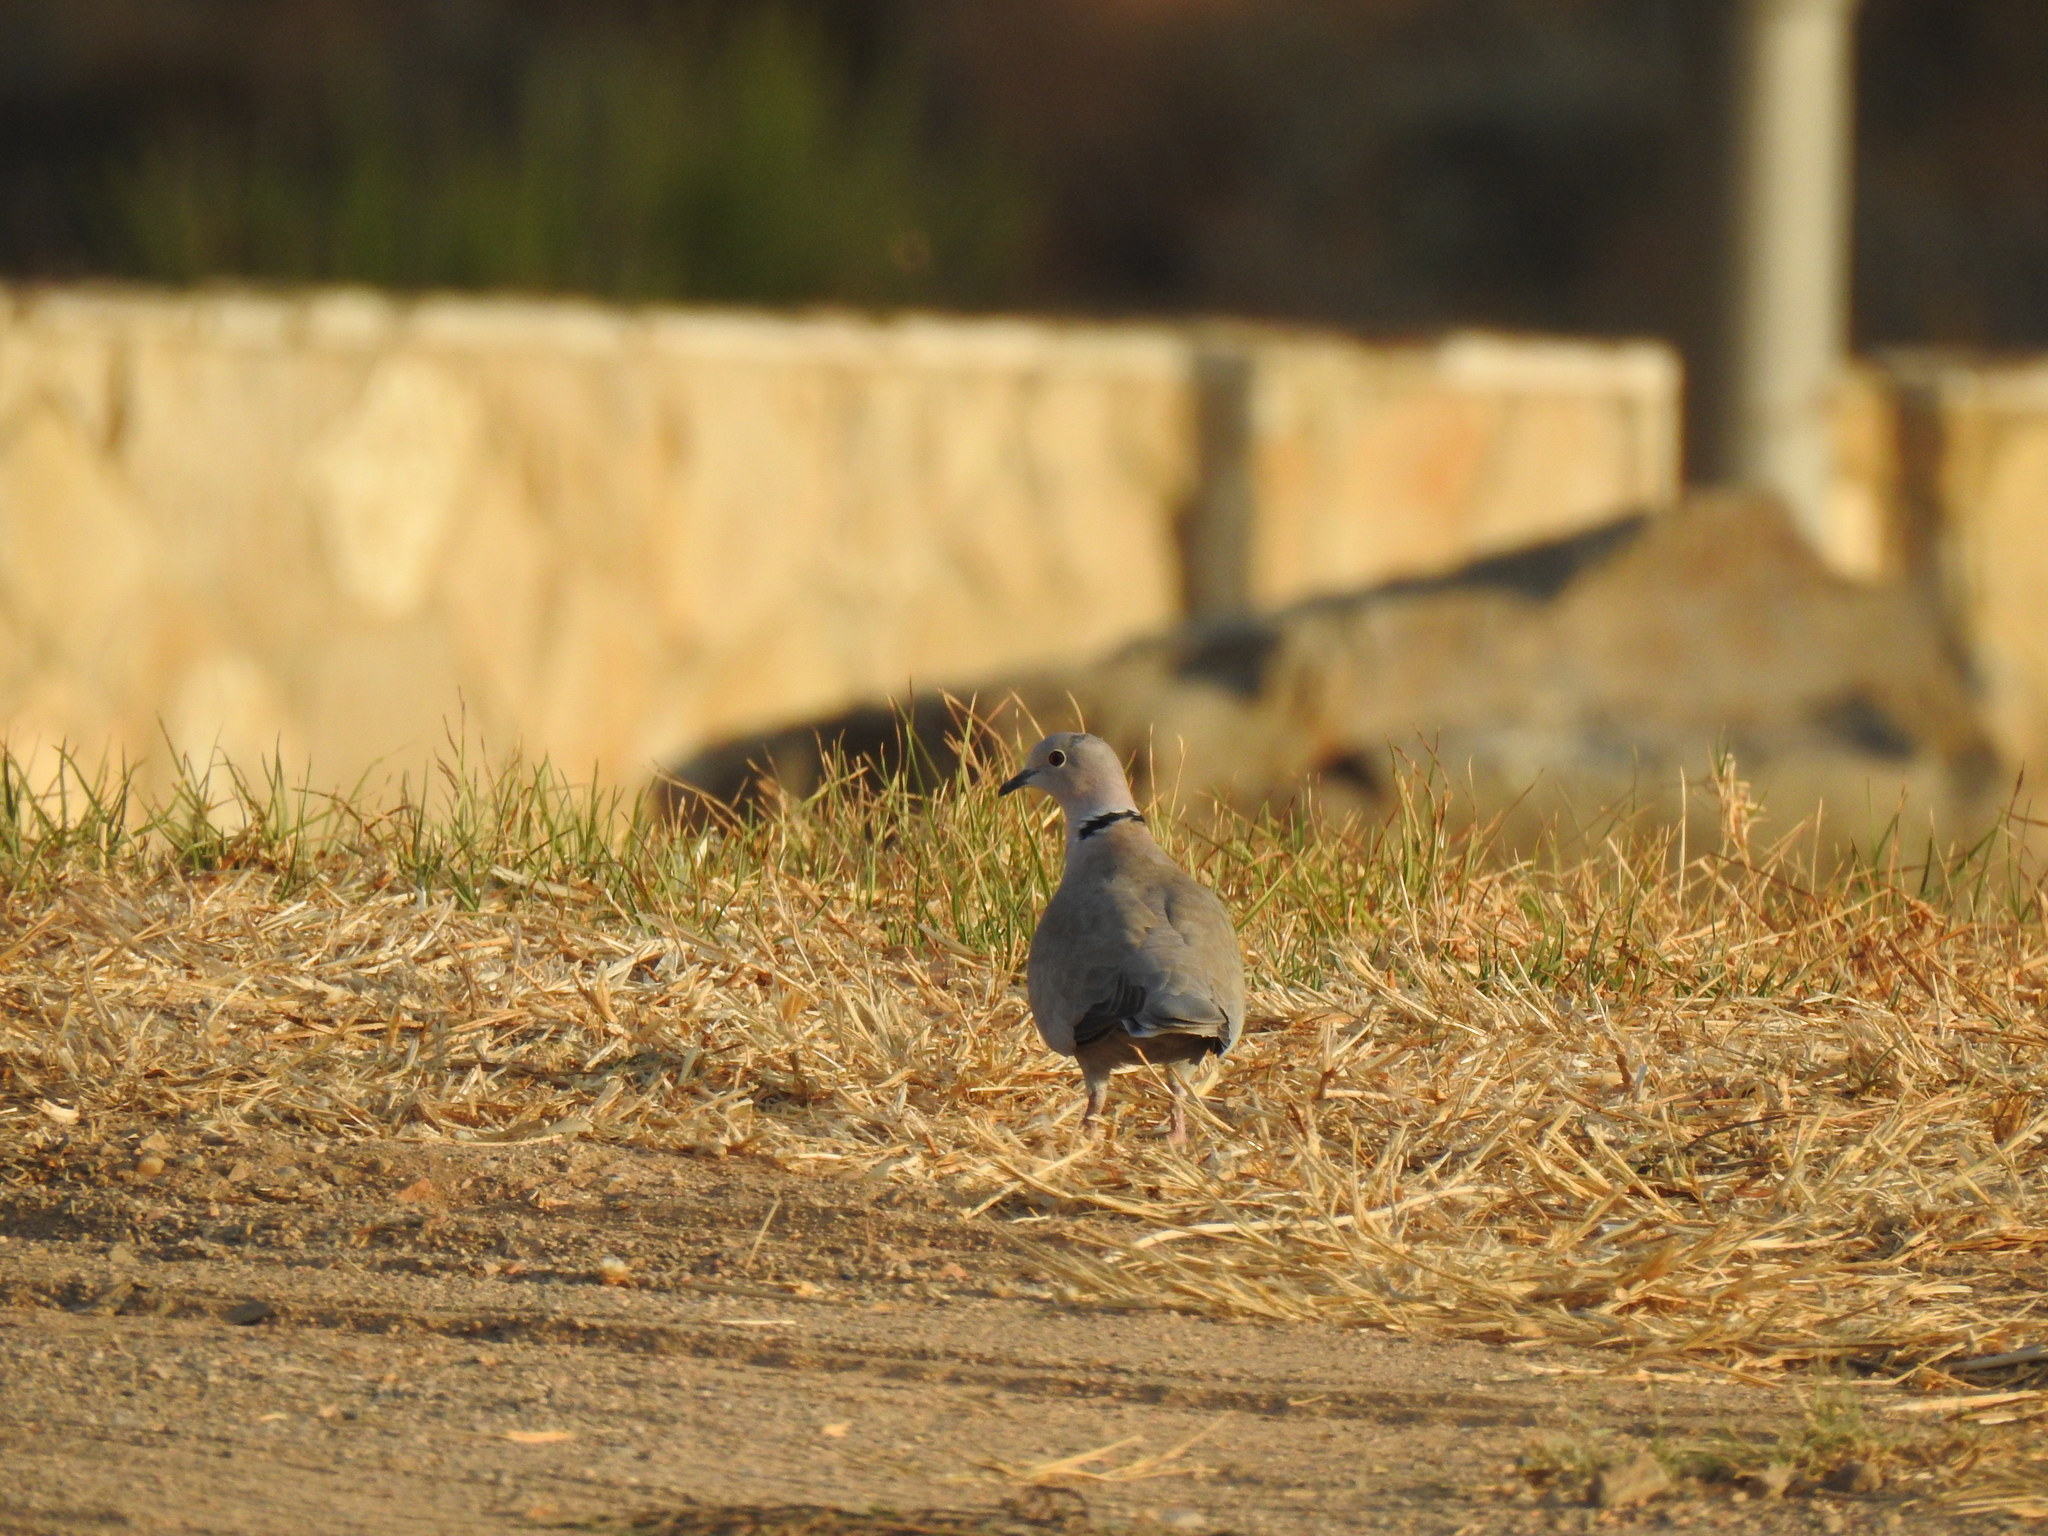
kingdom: Animalia
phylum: Chordata
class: Aves
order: Columbiformes
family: Columbidae
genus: Streptopelia
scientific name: Streptopelia decaocto
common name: Eurasian collared dove
